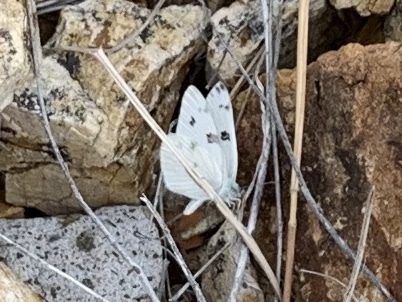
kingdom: Animalia
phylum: Arthropoda
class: Insecta
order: Lepidoptera
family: Pieridae
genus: Pontia
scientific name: Pontia protodice
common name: Checkered white
